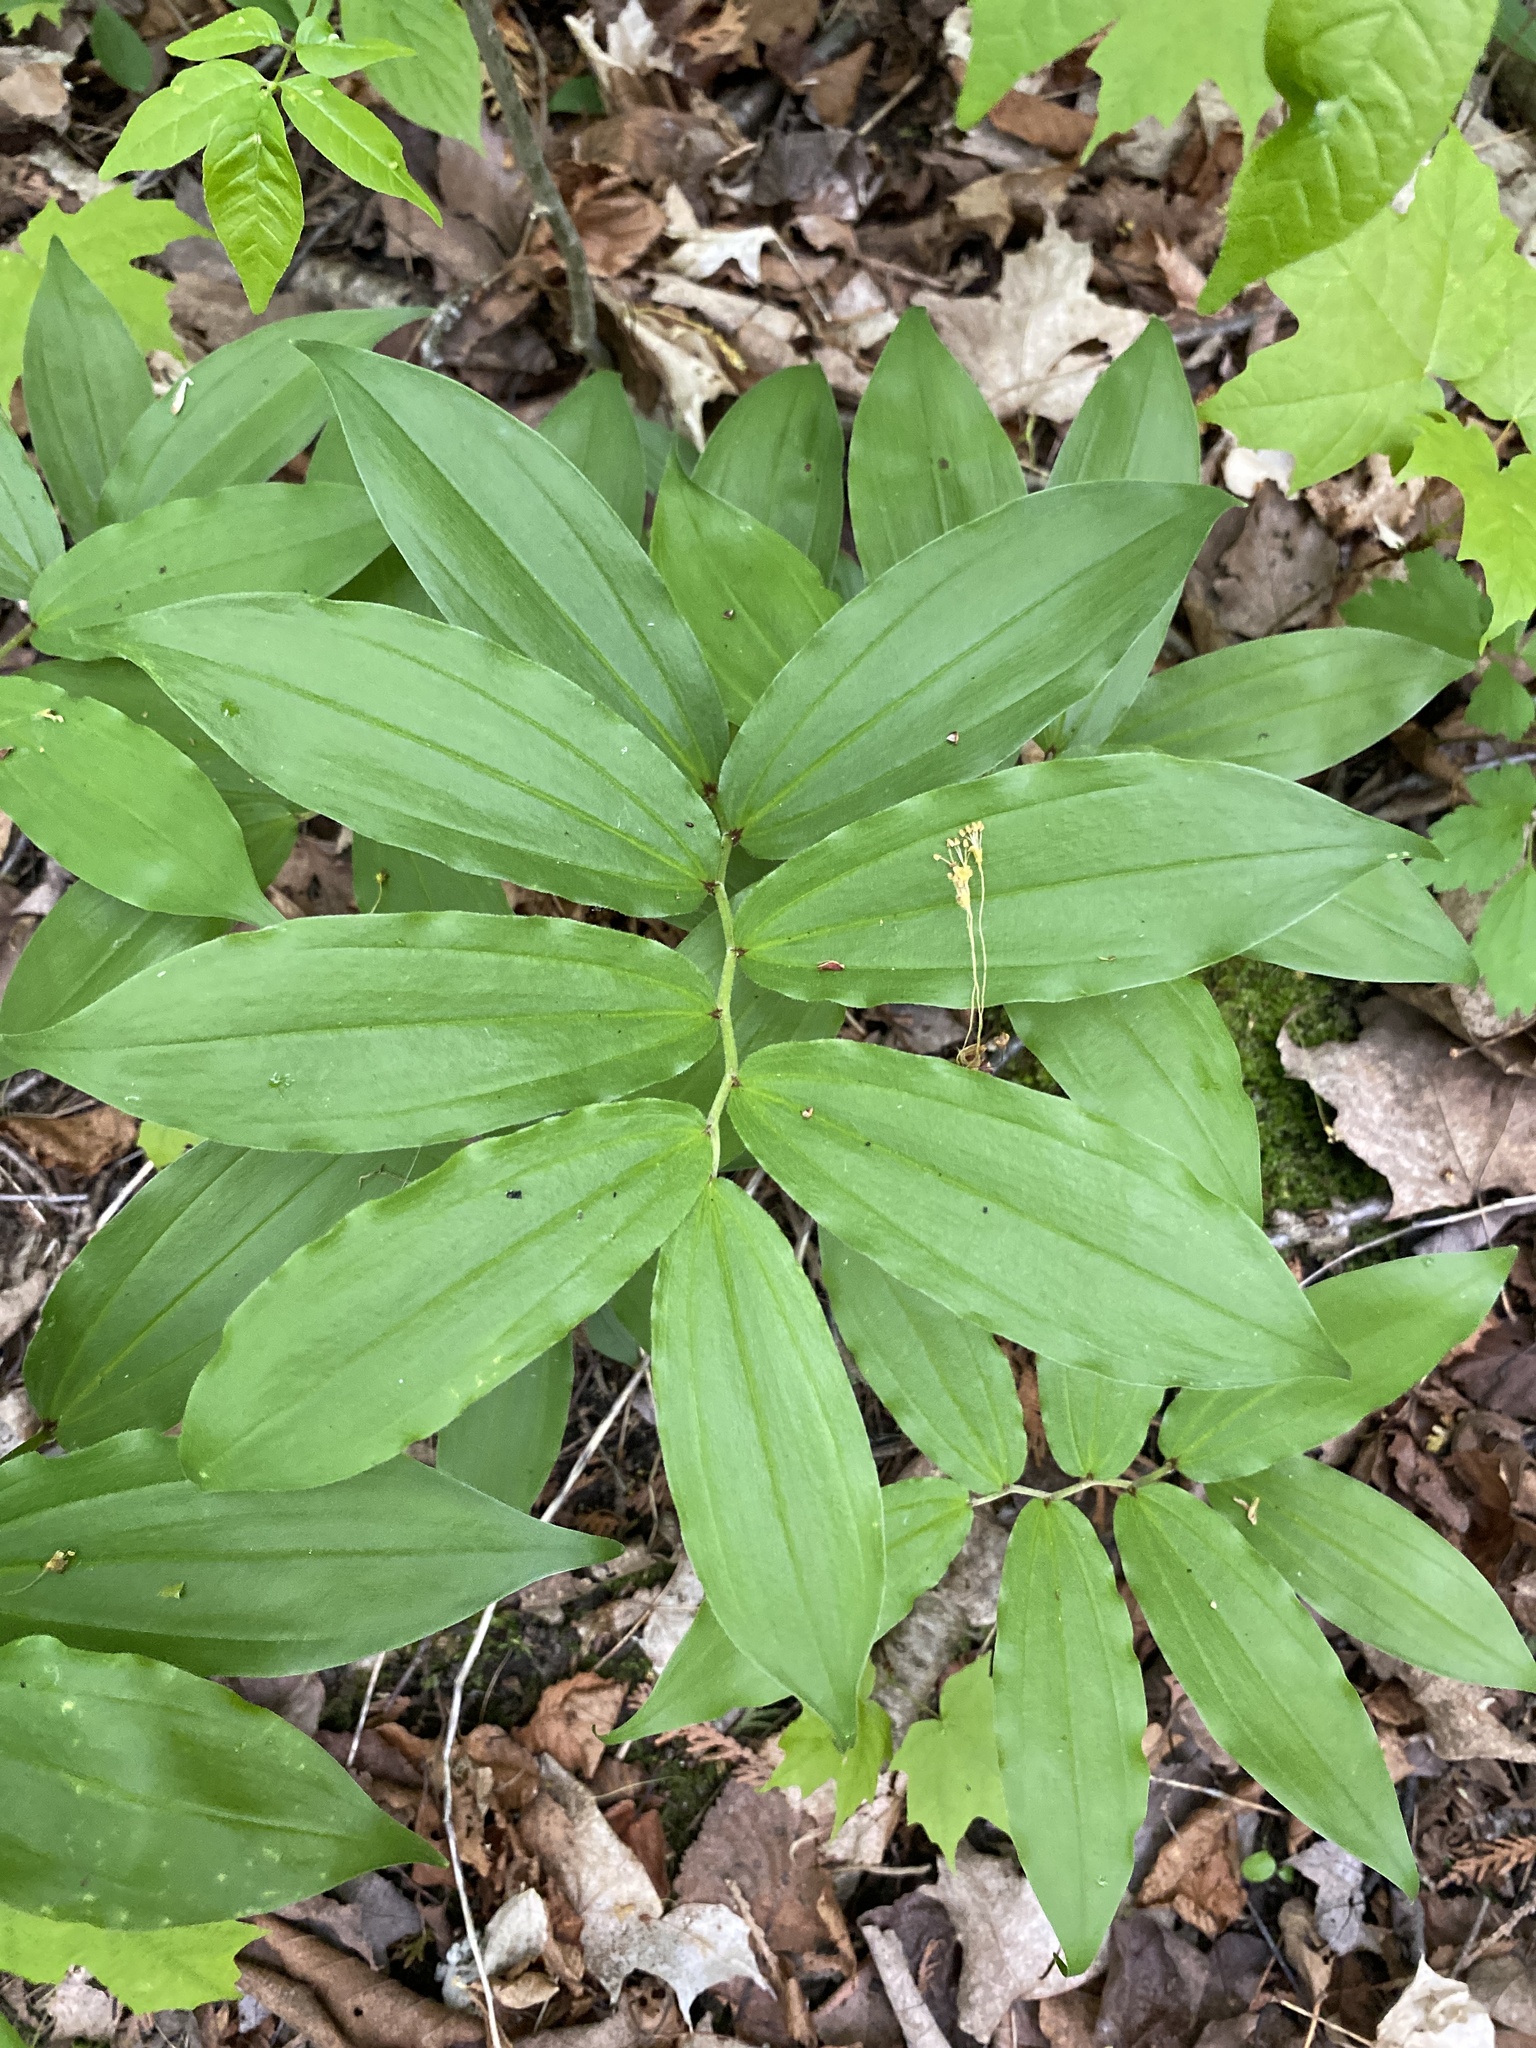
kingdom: Plantae
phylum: Tracheophyta
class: Liliopsida
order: Asparagales
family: Asparagaceae
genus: Maianthemum
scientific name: Maianthemum racemosum
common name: False spikenard
